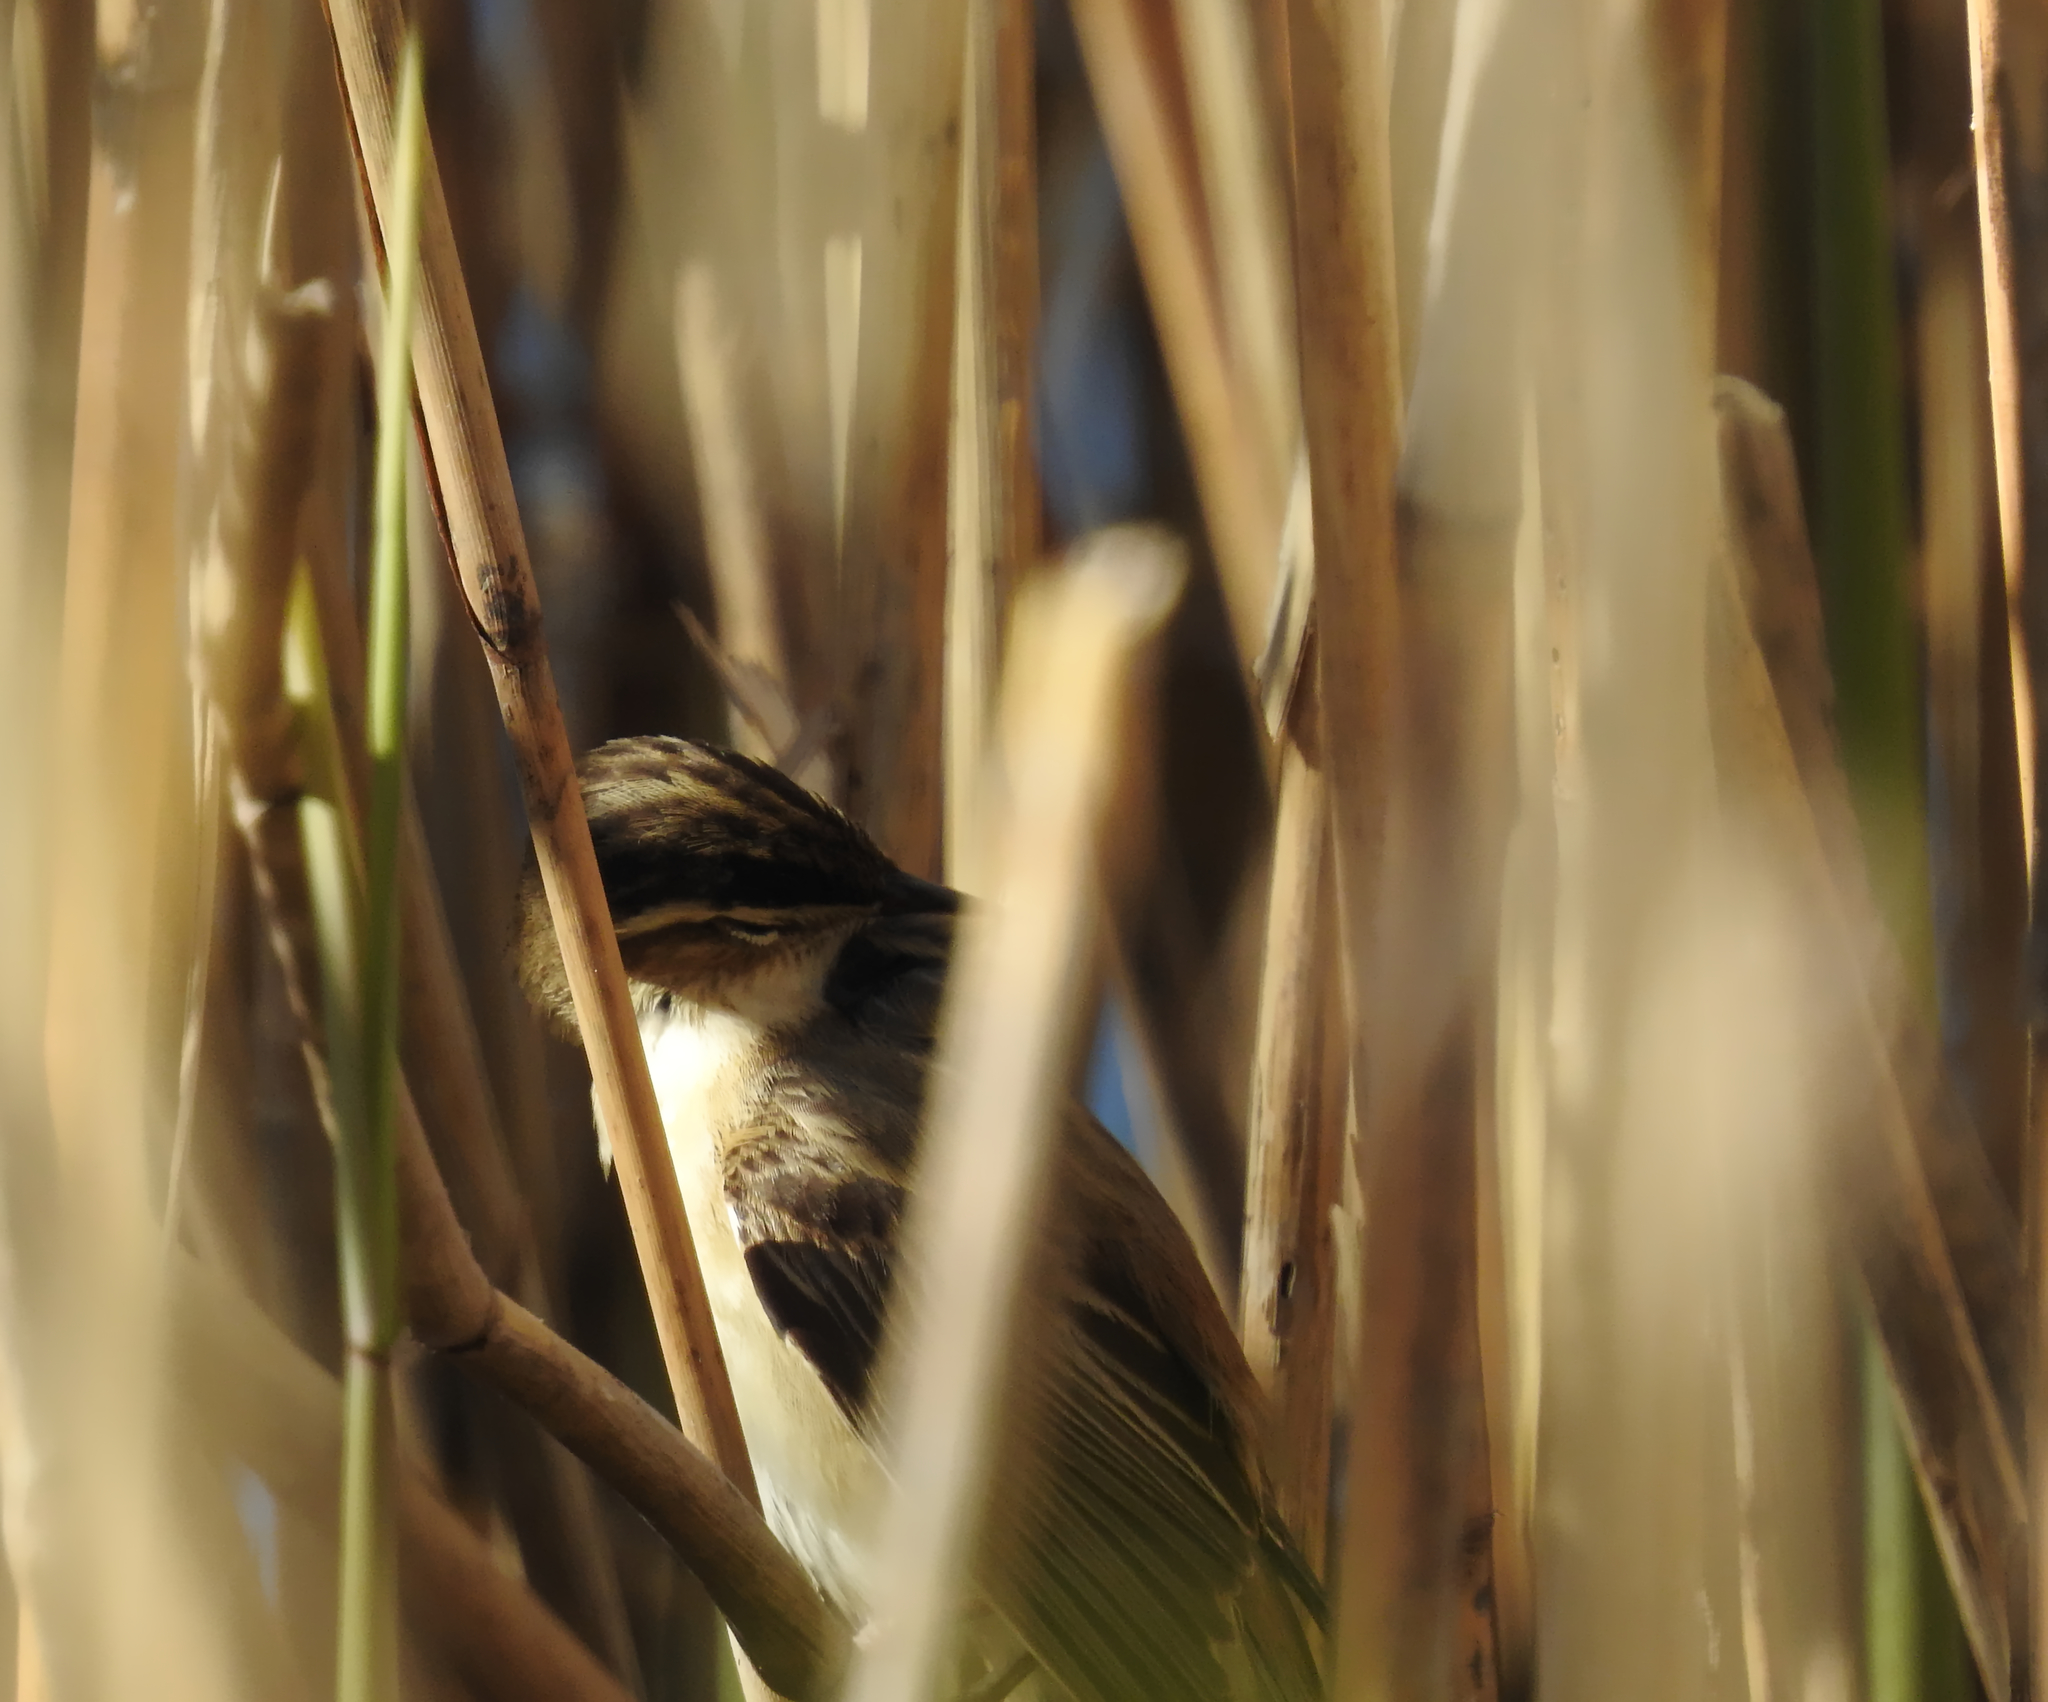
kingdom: Animalia
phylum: Chordata
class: Aves
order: Passeriformes
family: Acrocephalidae
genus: Acrocephalus
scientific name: Acrocephalus schoenobaenus
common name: Sedge warbler
